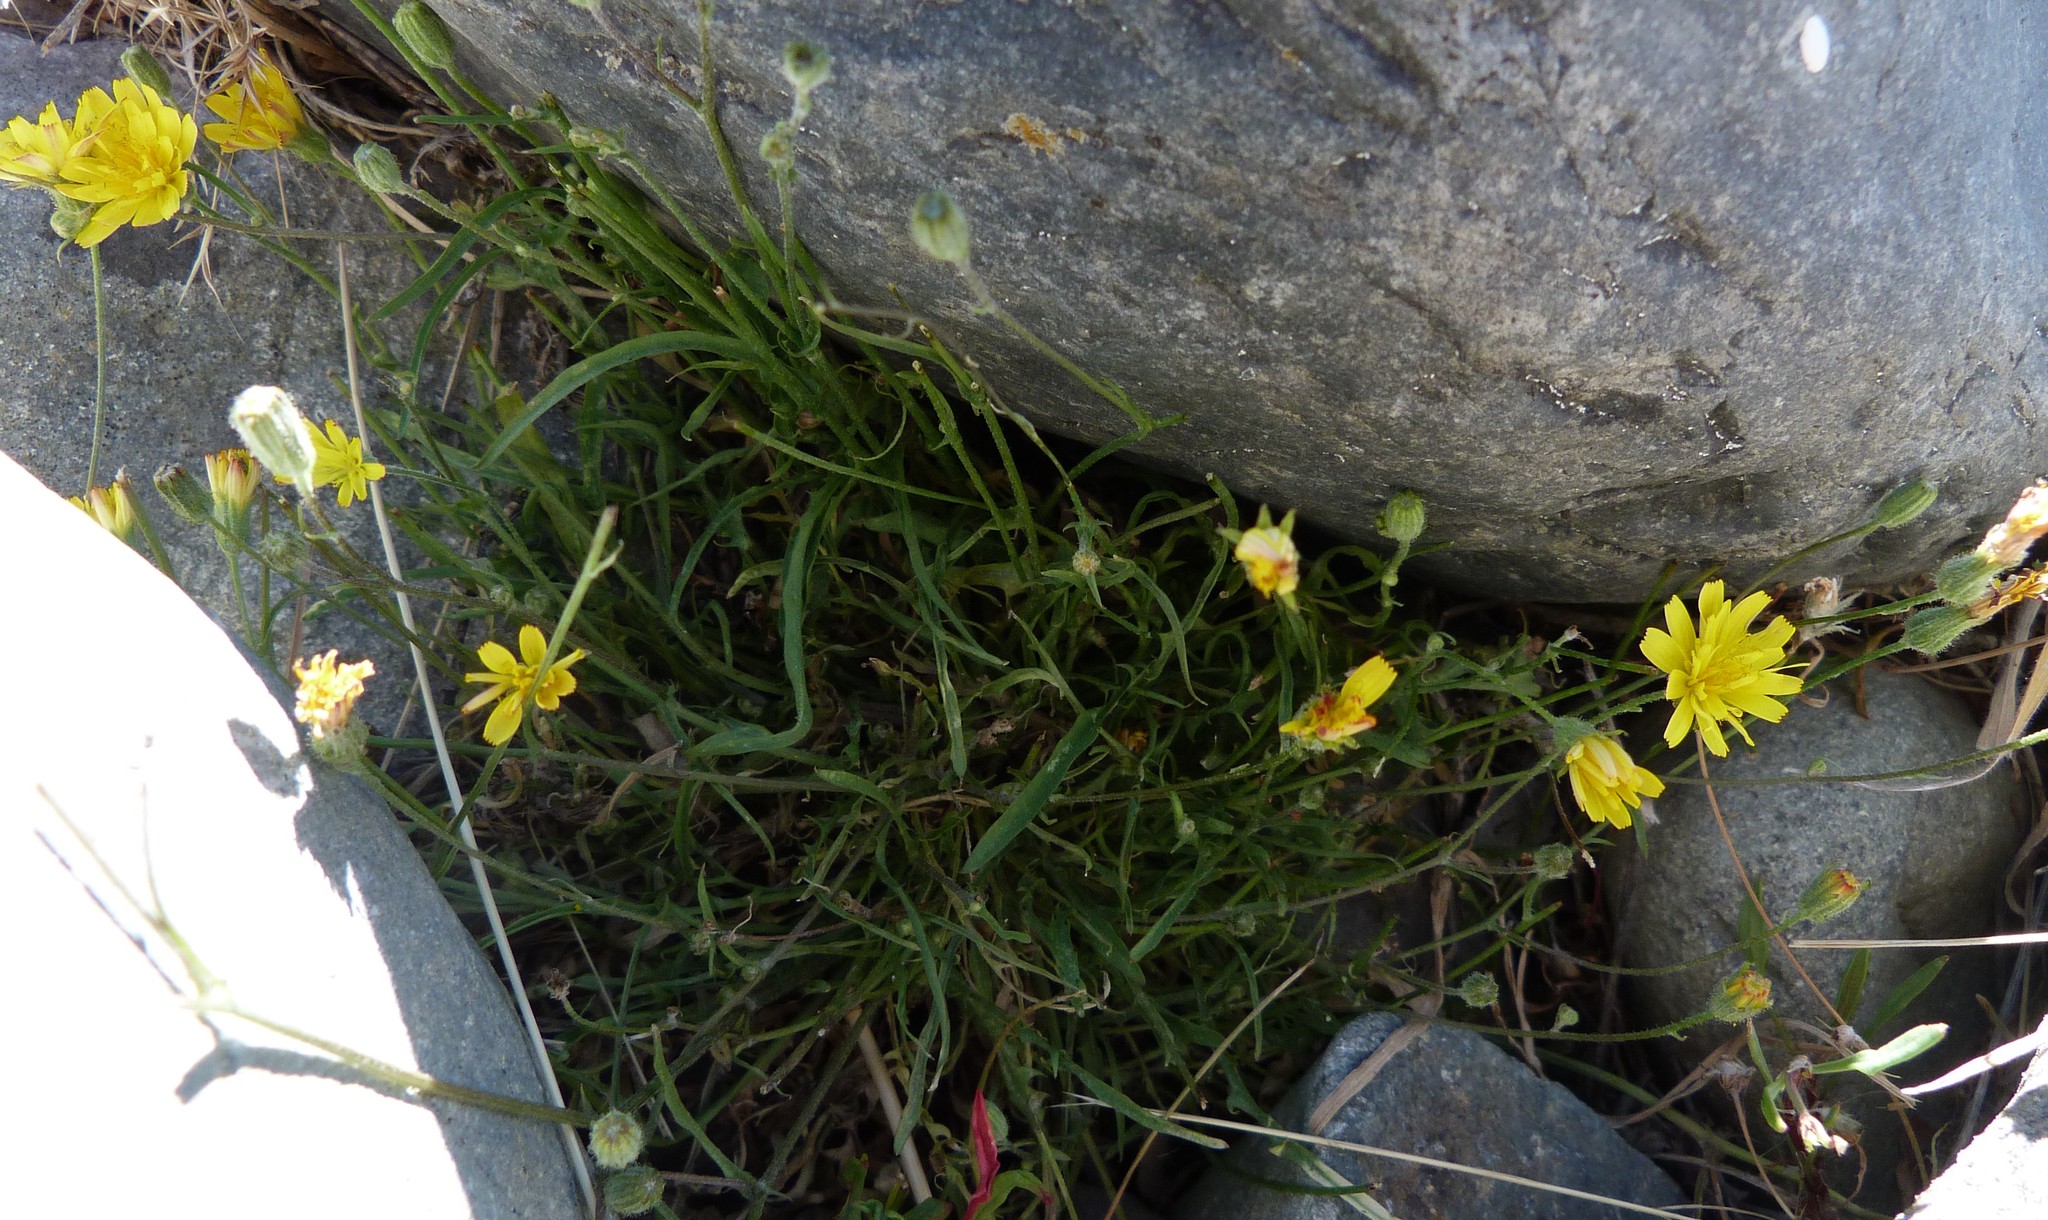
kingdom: Plantae
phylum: Tracheophyta
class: Magnoliopsida
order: Asterales
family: Asteraceae
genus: Crepis
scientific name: Crepis capillaris
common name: Smooth hawksbeard
